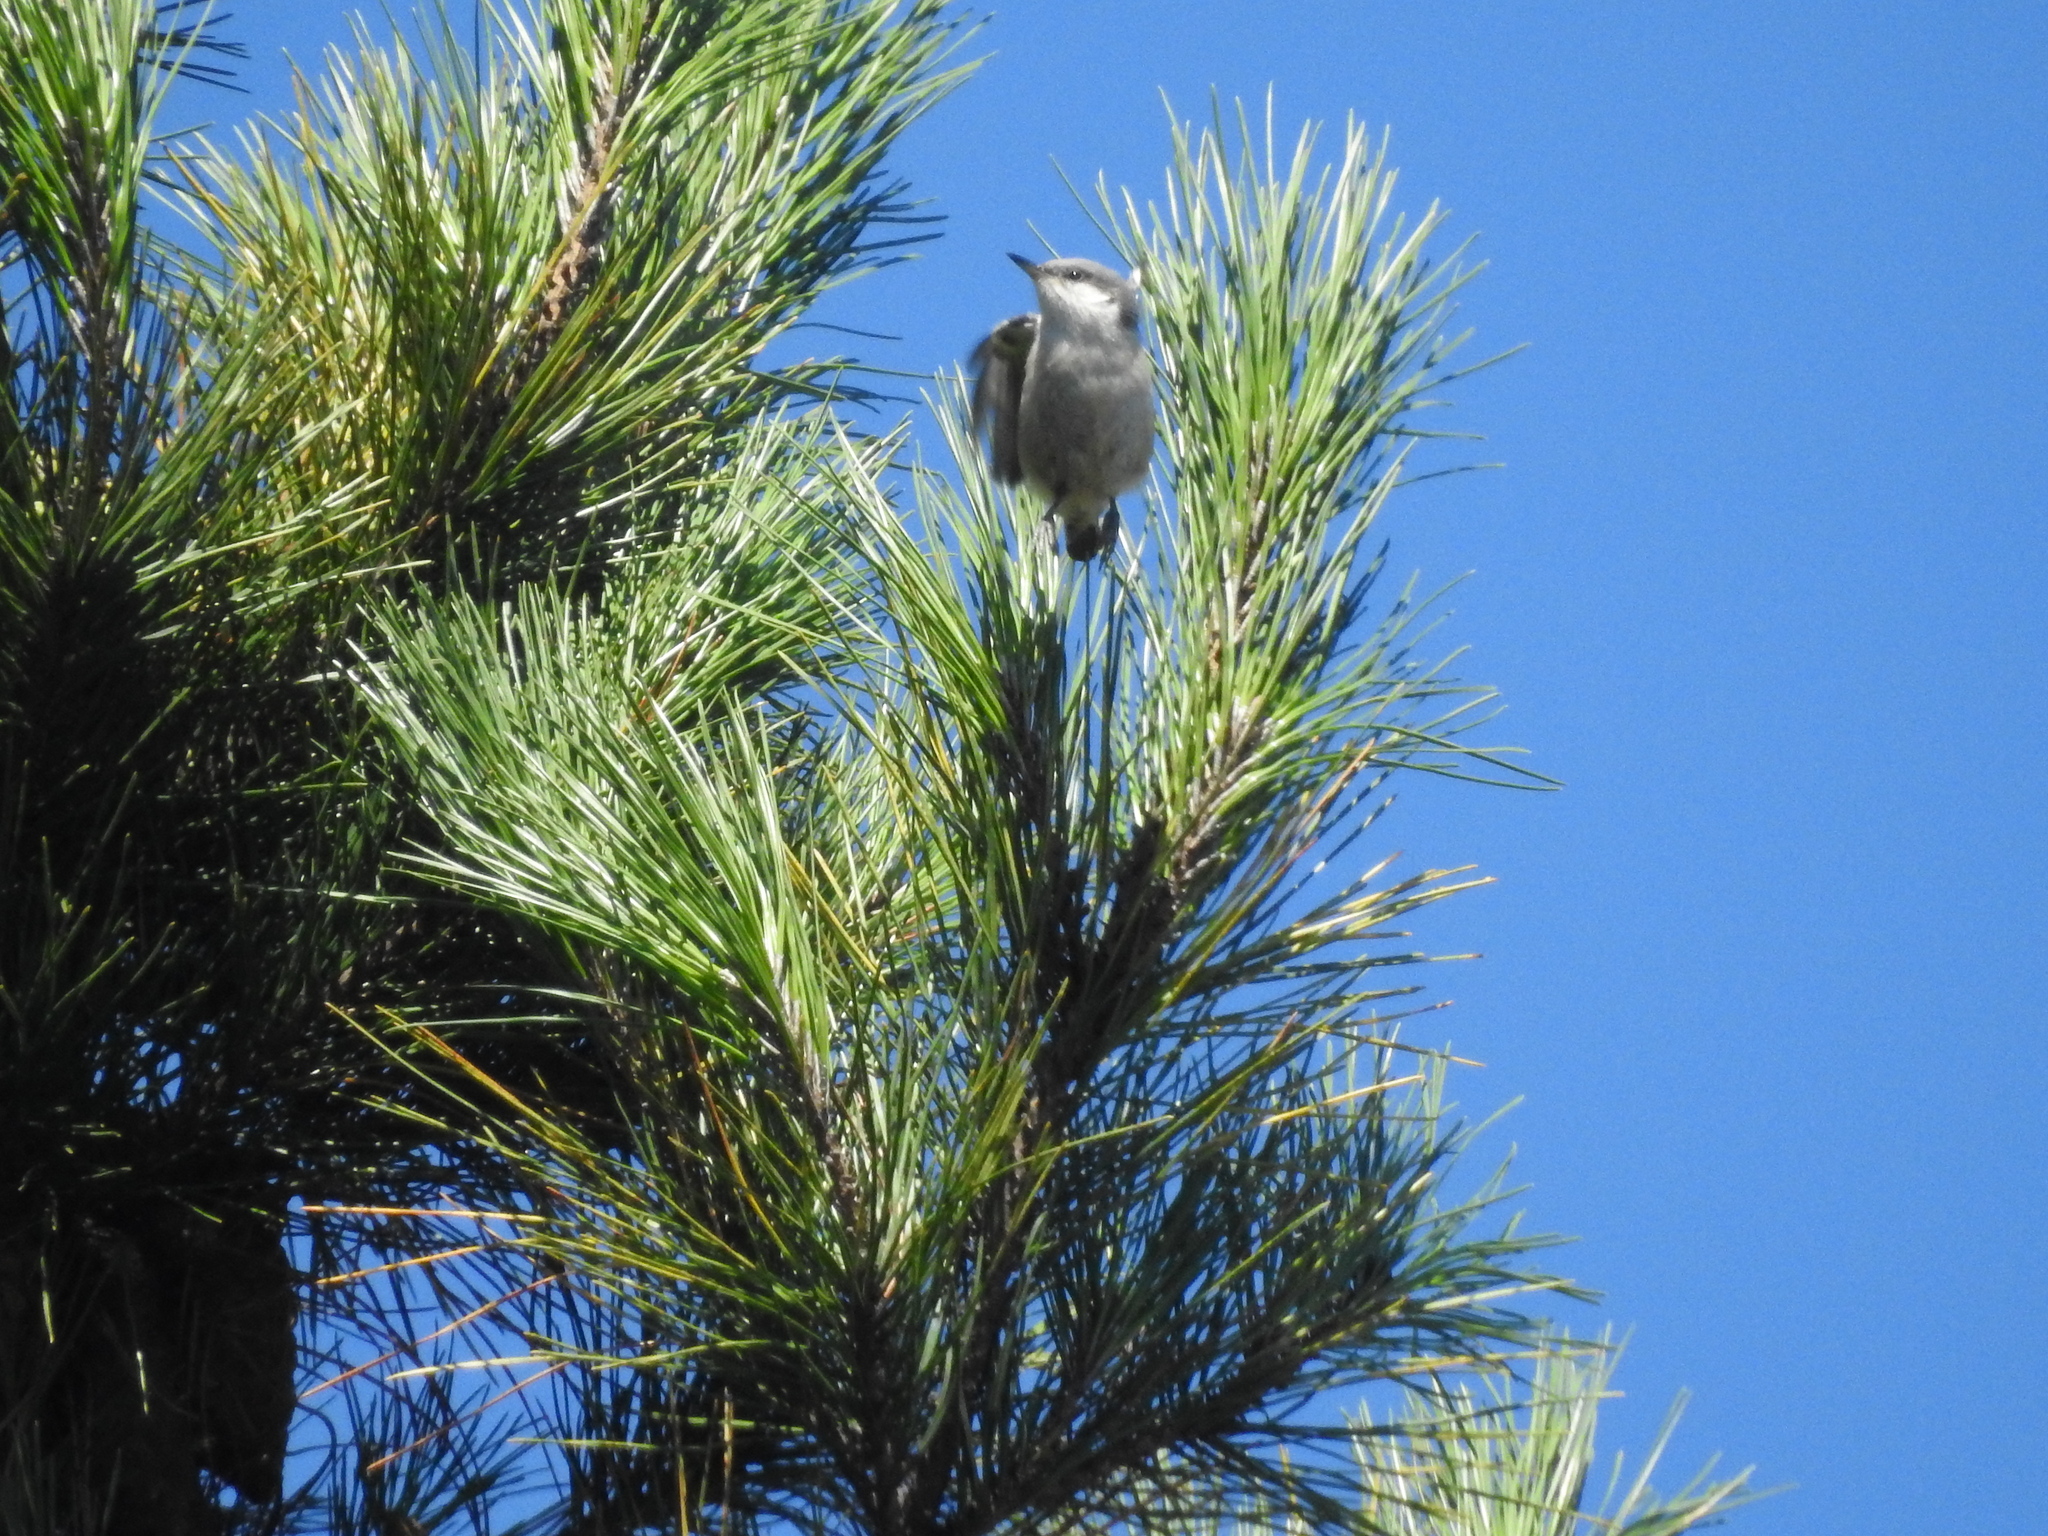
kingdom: Animalia
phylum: Chordata
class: Aves
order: Passeriformes
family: Sittidae
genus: Sitta
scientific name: Sitta pygmaea
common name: Pygmy nuthatch
